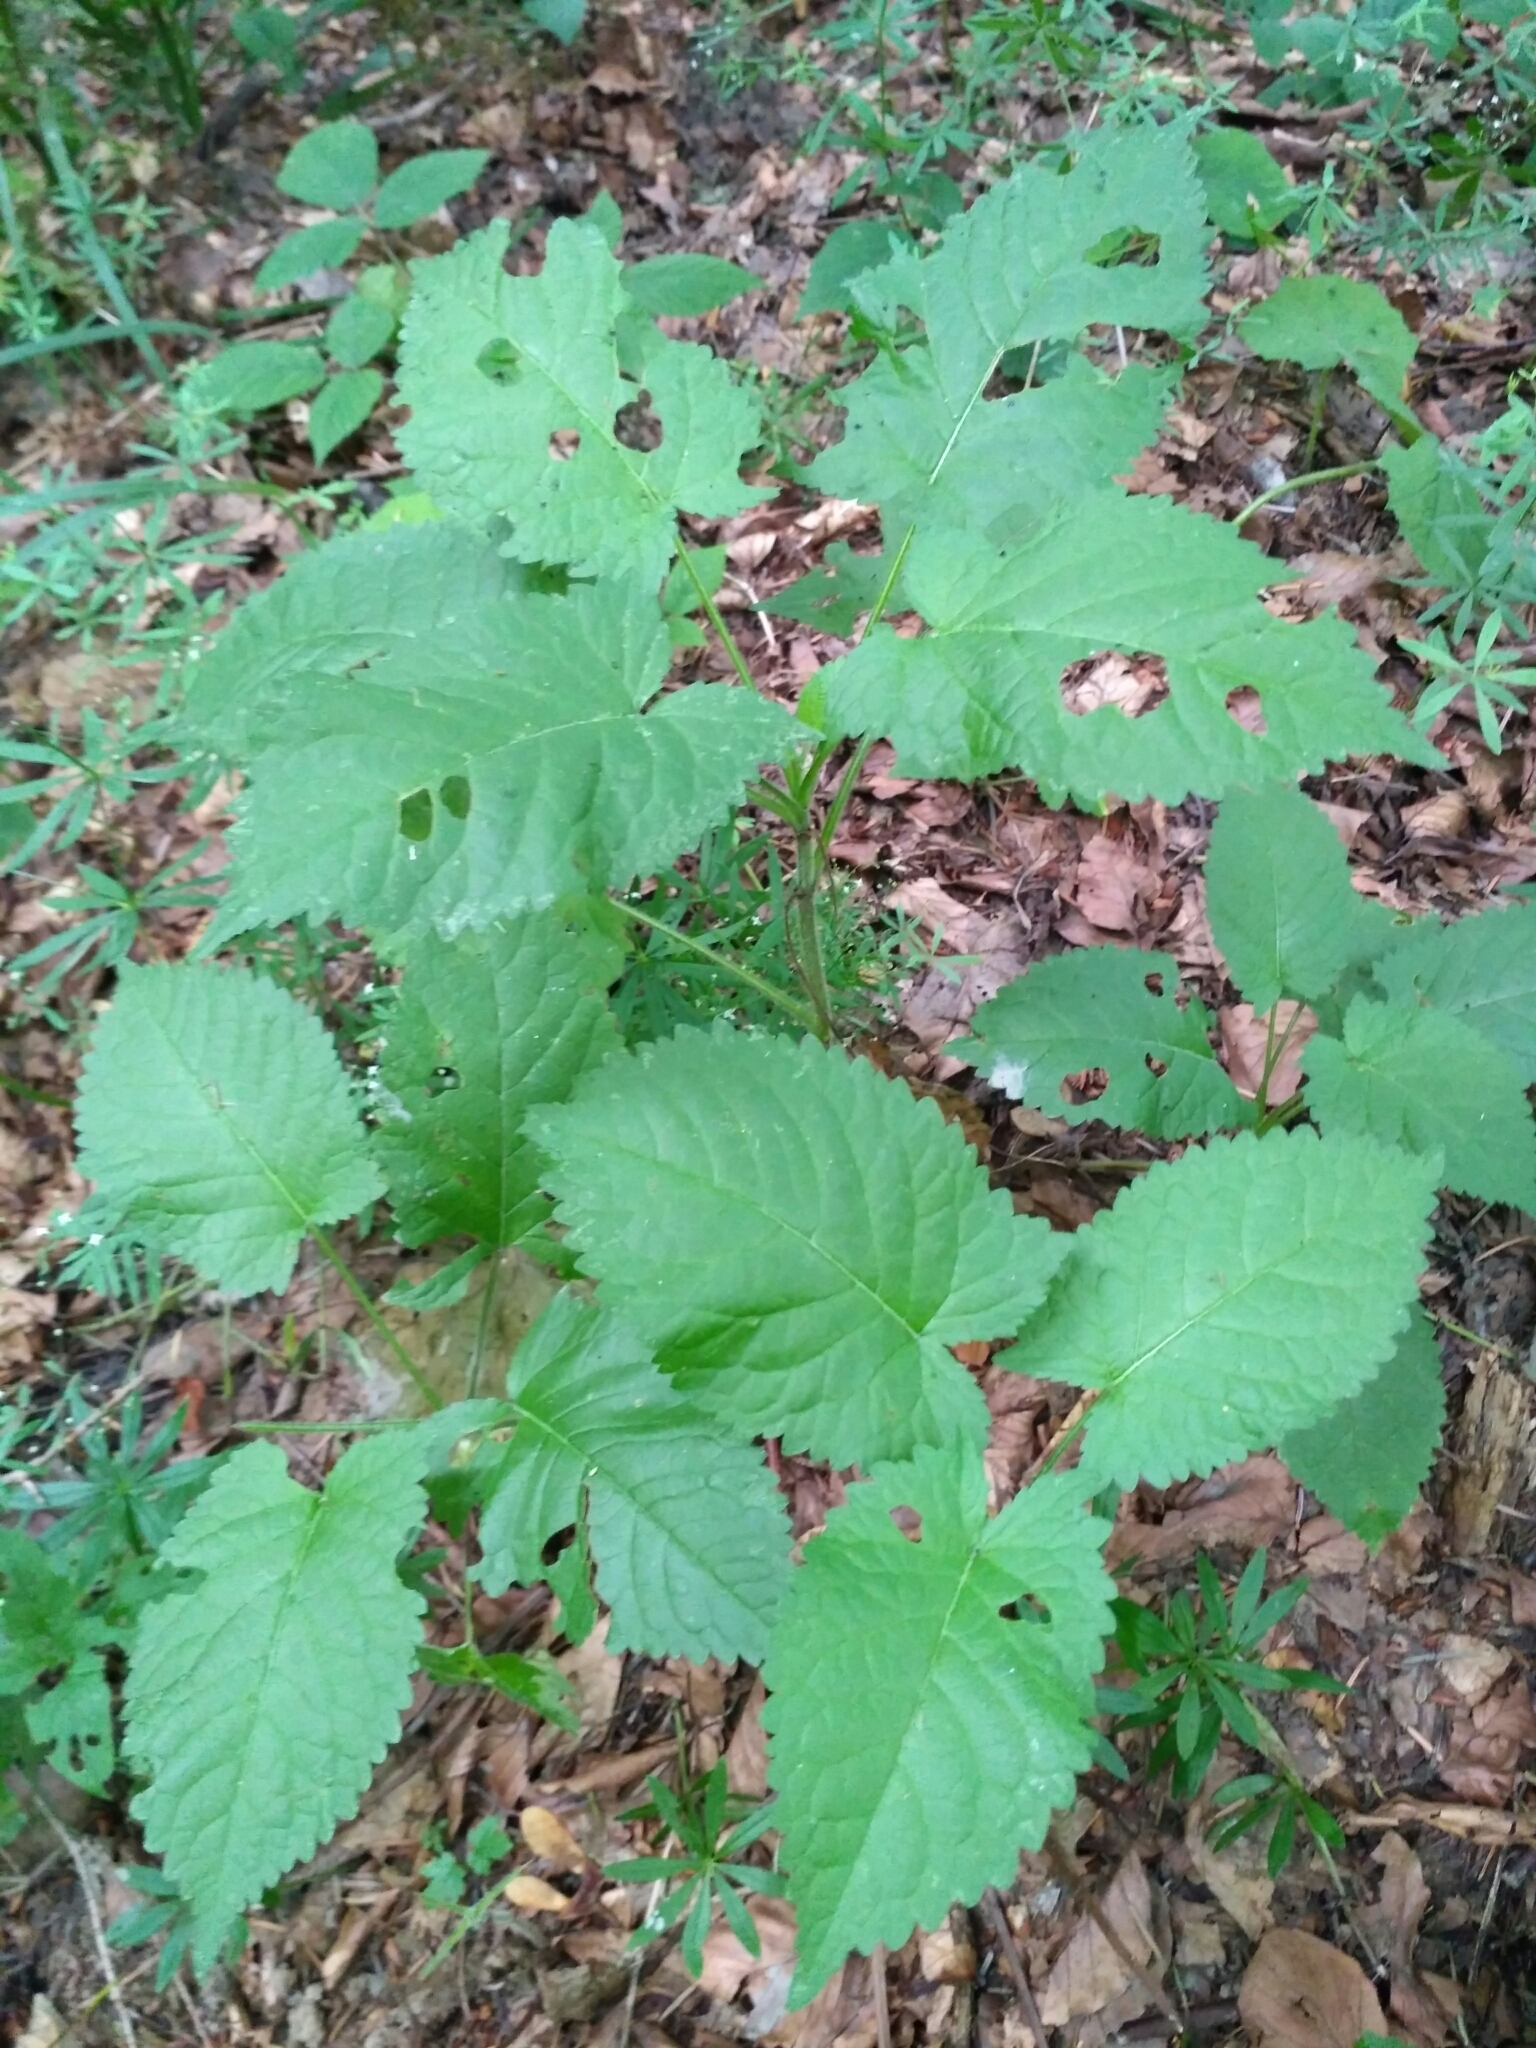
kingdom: Plantae
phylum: Tracheophyta
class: Magnoliopsida
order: Lamiales
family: Lamiaceae
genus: Salvia
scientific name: Salvia glutinosa
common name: Sticky clary
